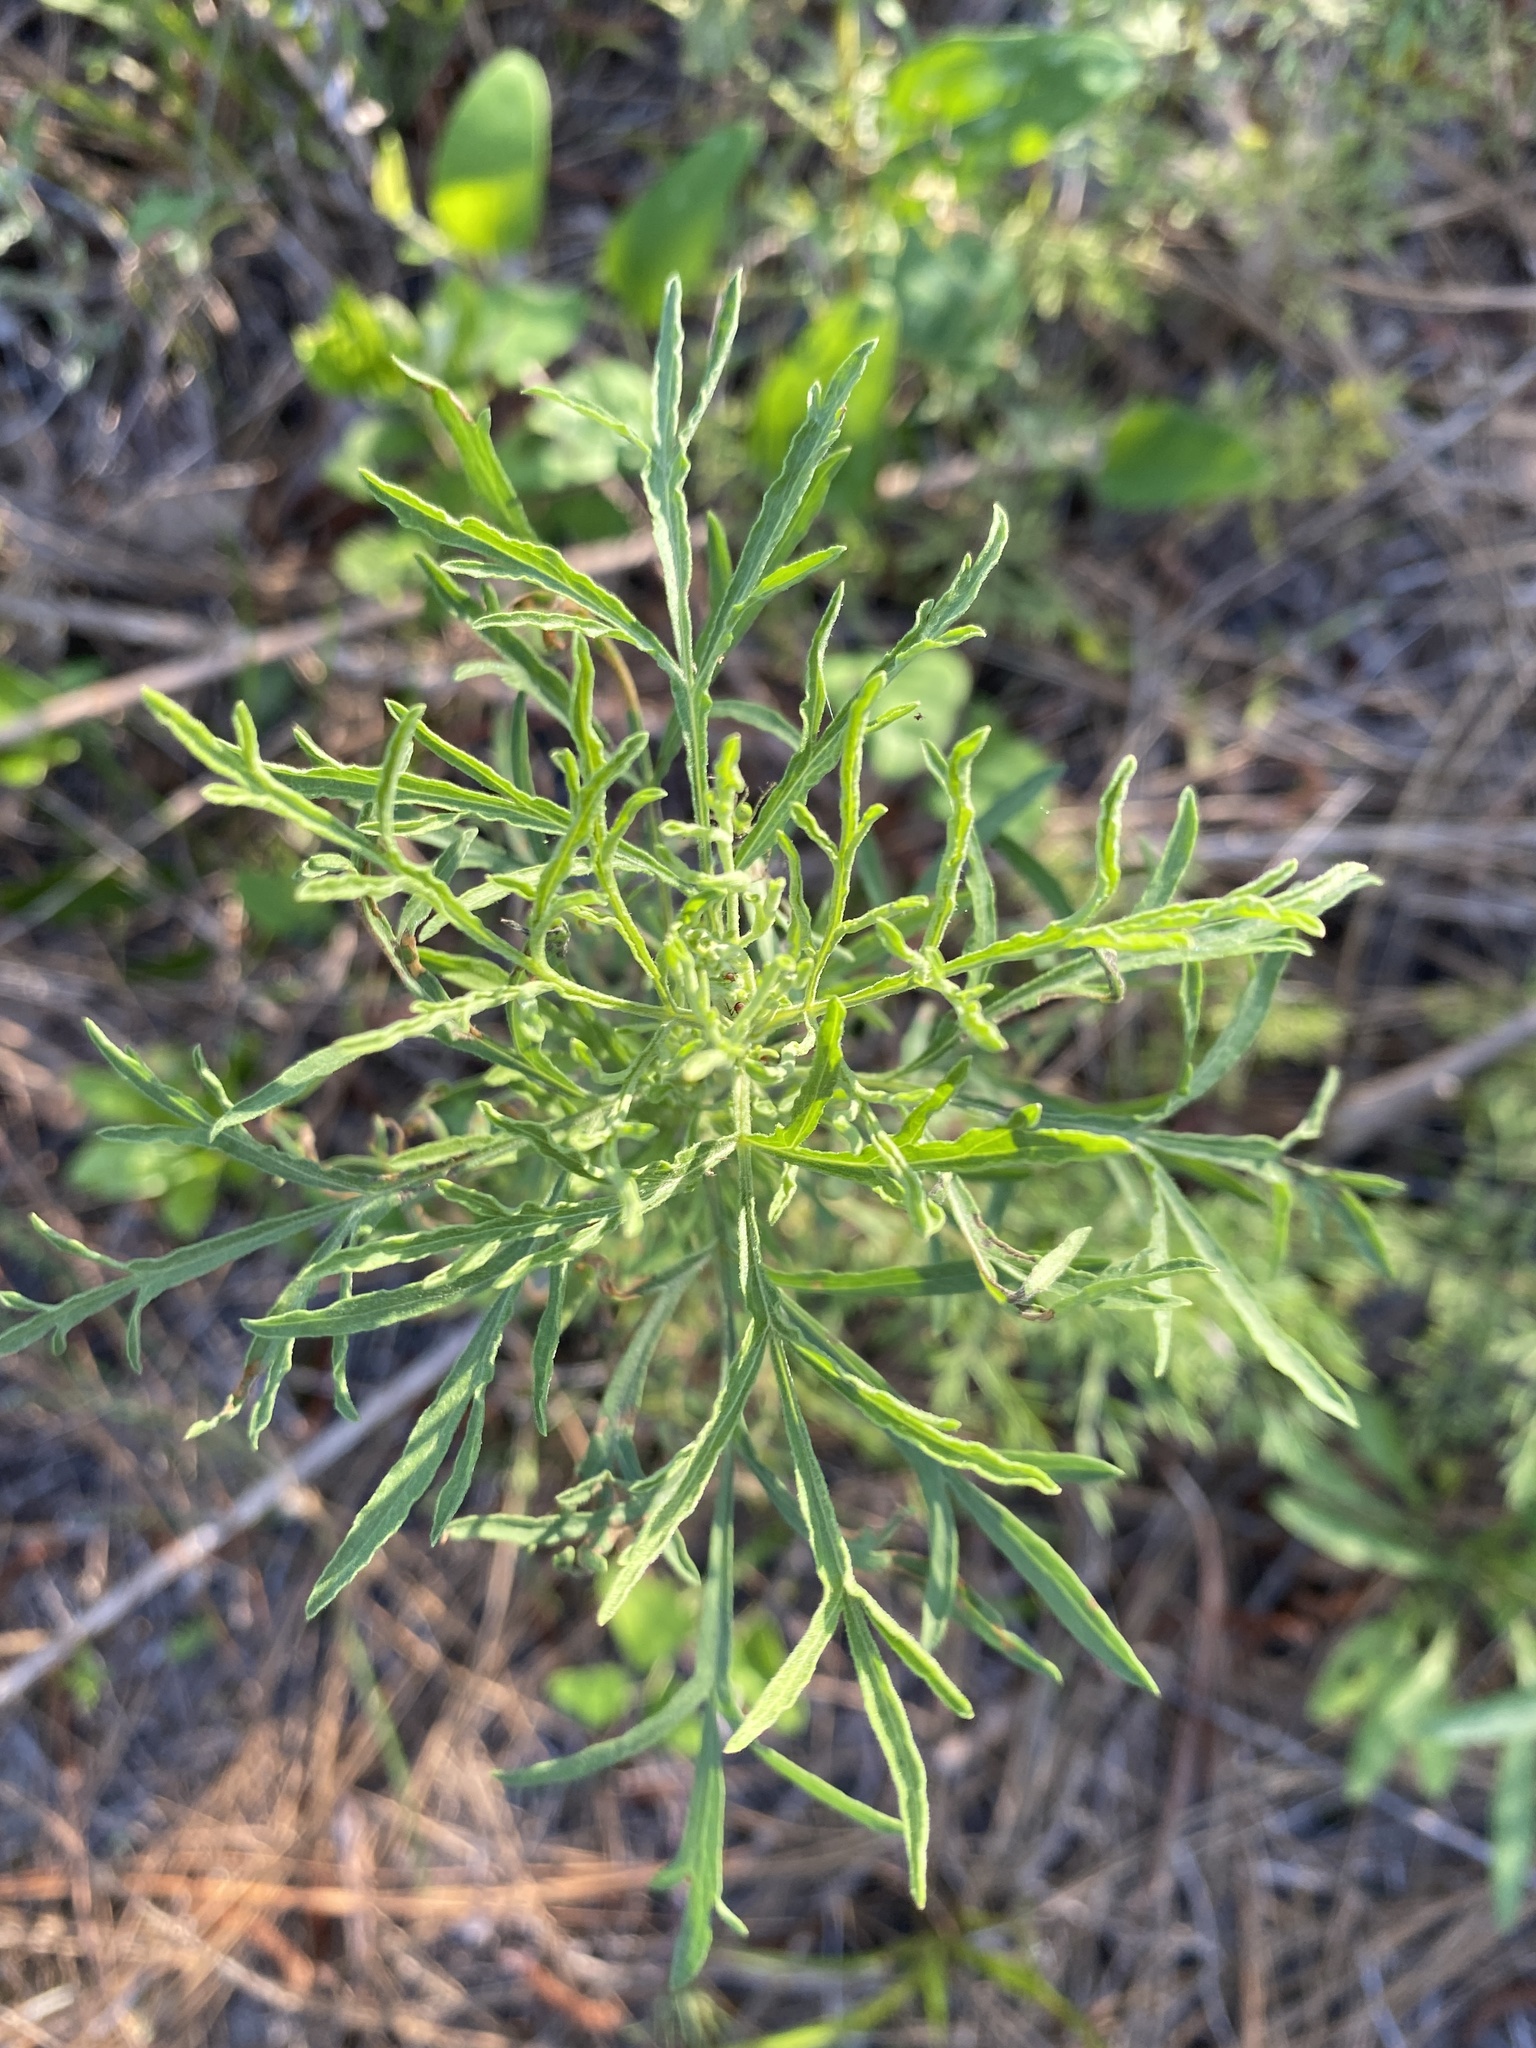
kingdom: Plantae
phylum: Tracheophyta
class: Magnoliopsida
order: Asterales
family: Asteraceae
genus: Eupatorium
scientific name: Eupatorium compositifolium
